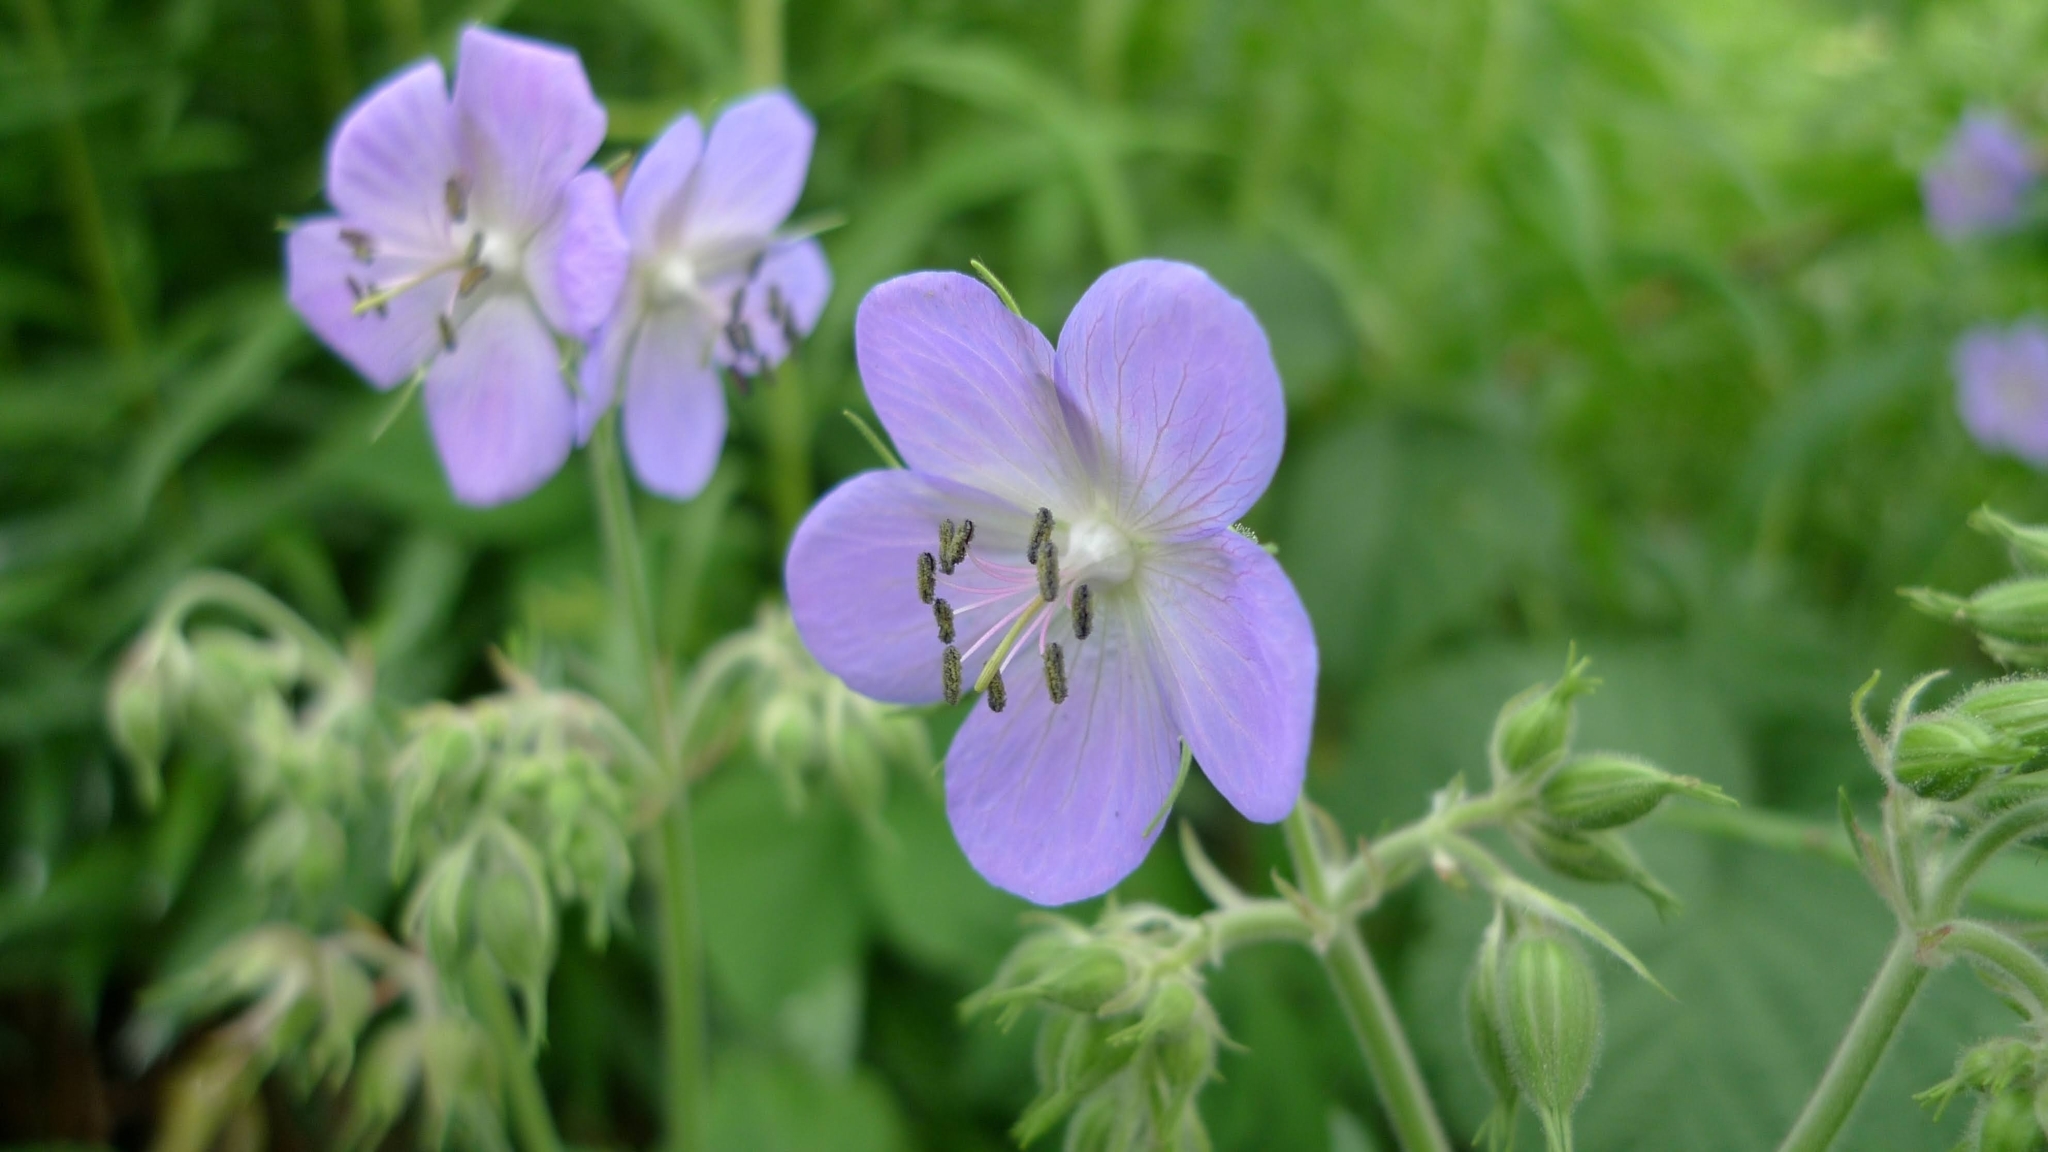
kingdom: Plantae
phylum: Tracheophyta
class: Magnoliopsida
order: Geraniales
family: Geraniaceae
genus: Geranium
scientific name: Geranium pratense
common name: Meadow crane's-bill
